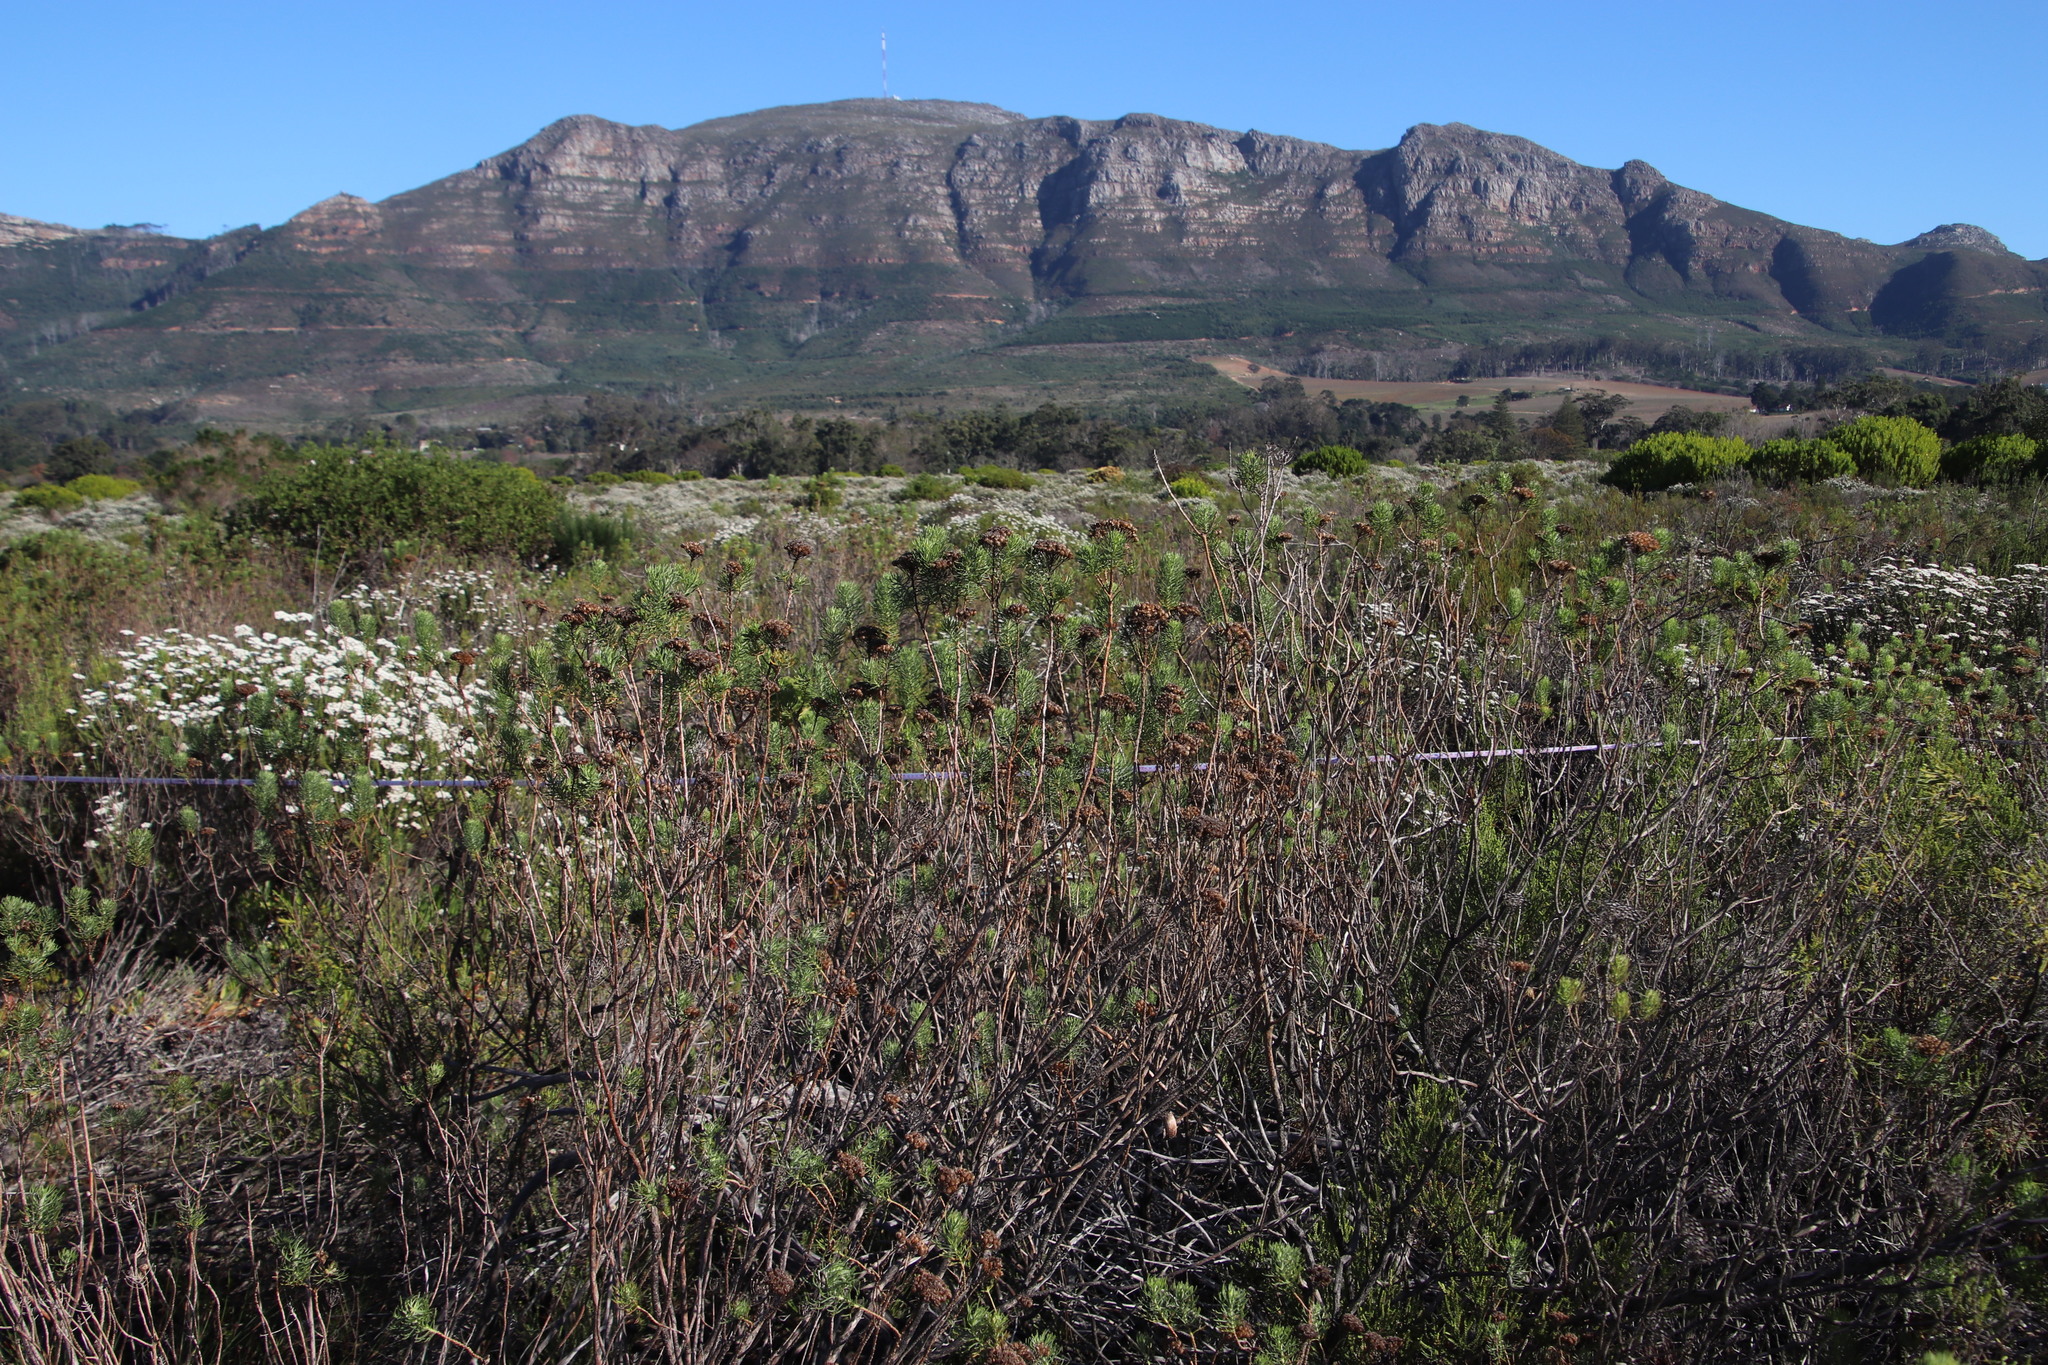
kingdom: Plantae
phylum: Tracheophyta
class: Magnoliopsida
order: Asterales
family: Asteraceae
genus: Athanasia
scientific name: Athanasia crithmifolia
